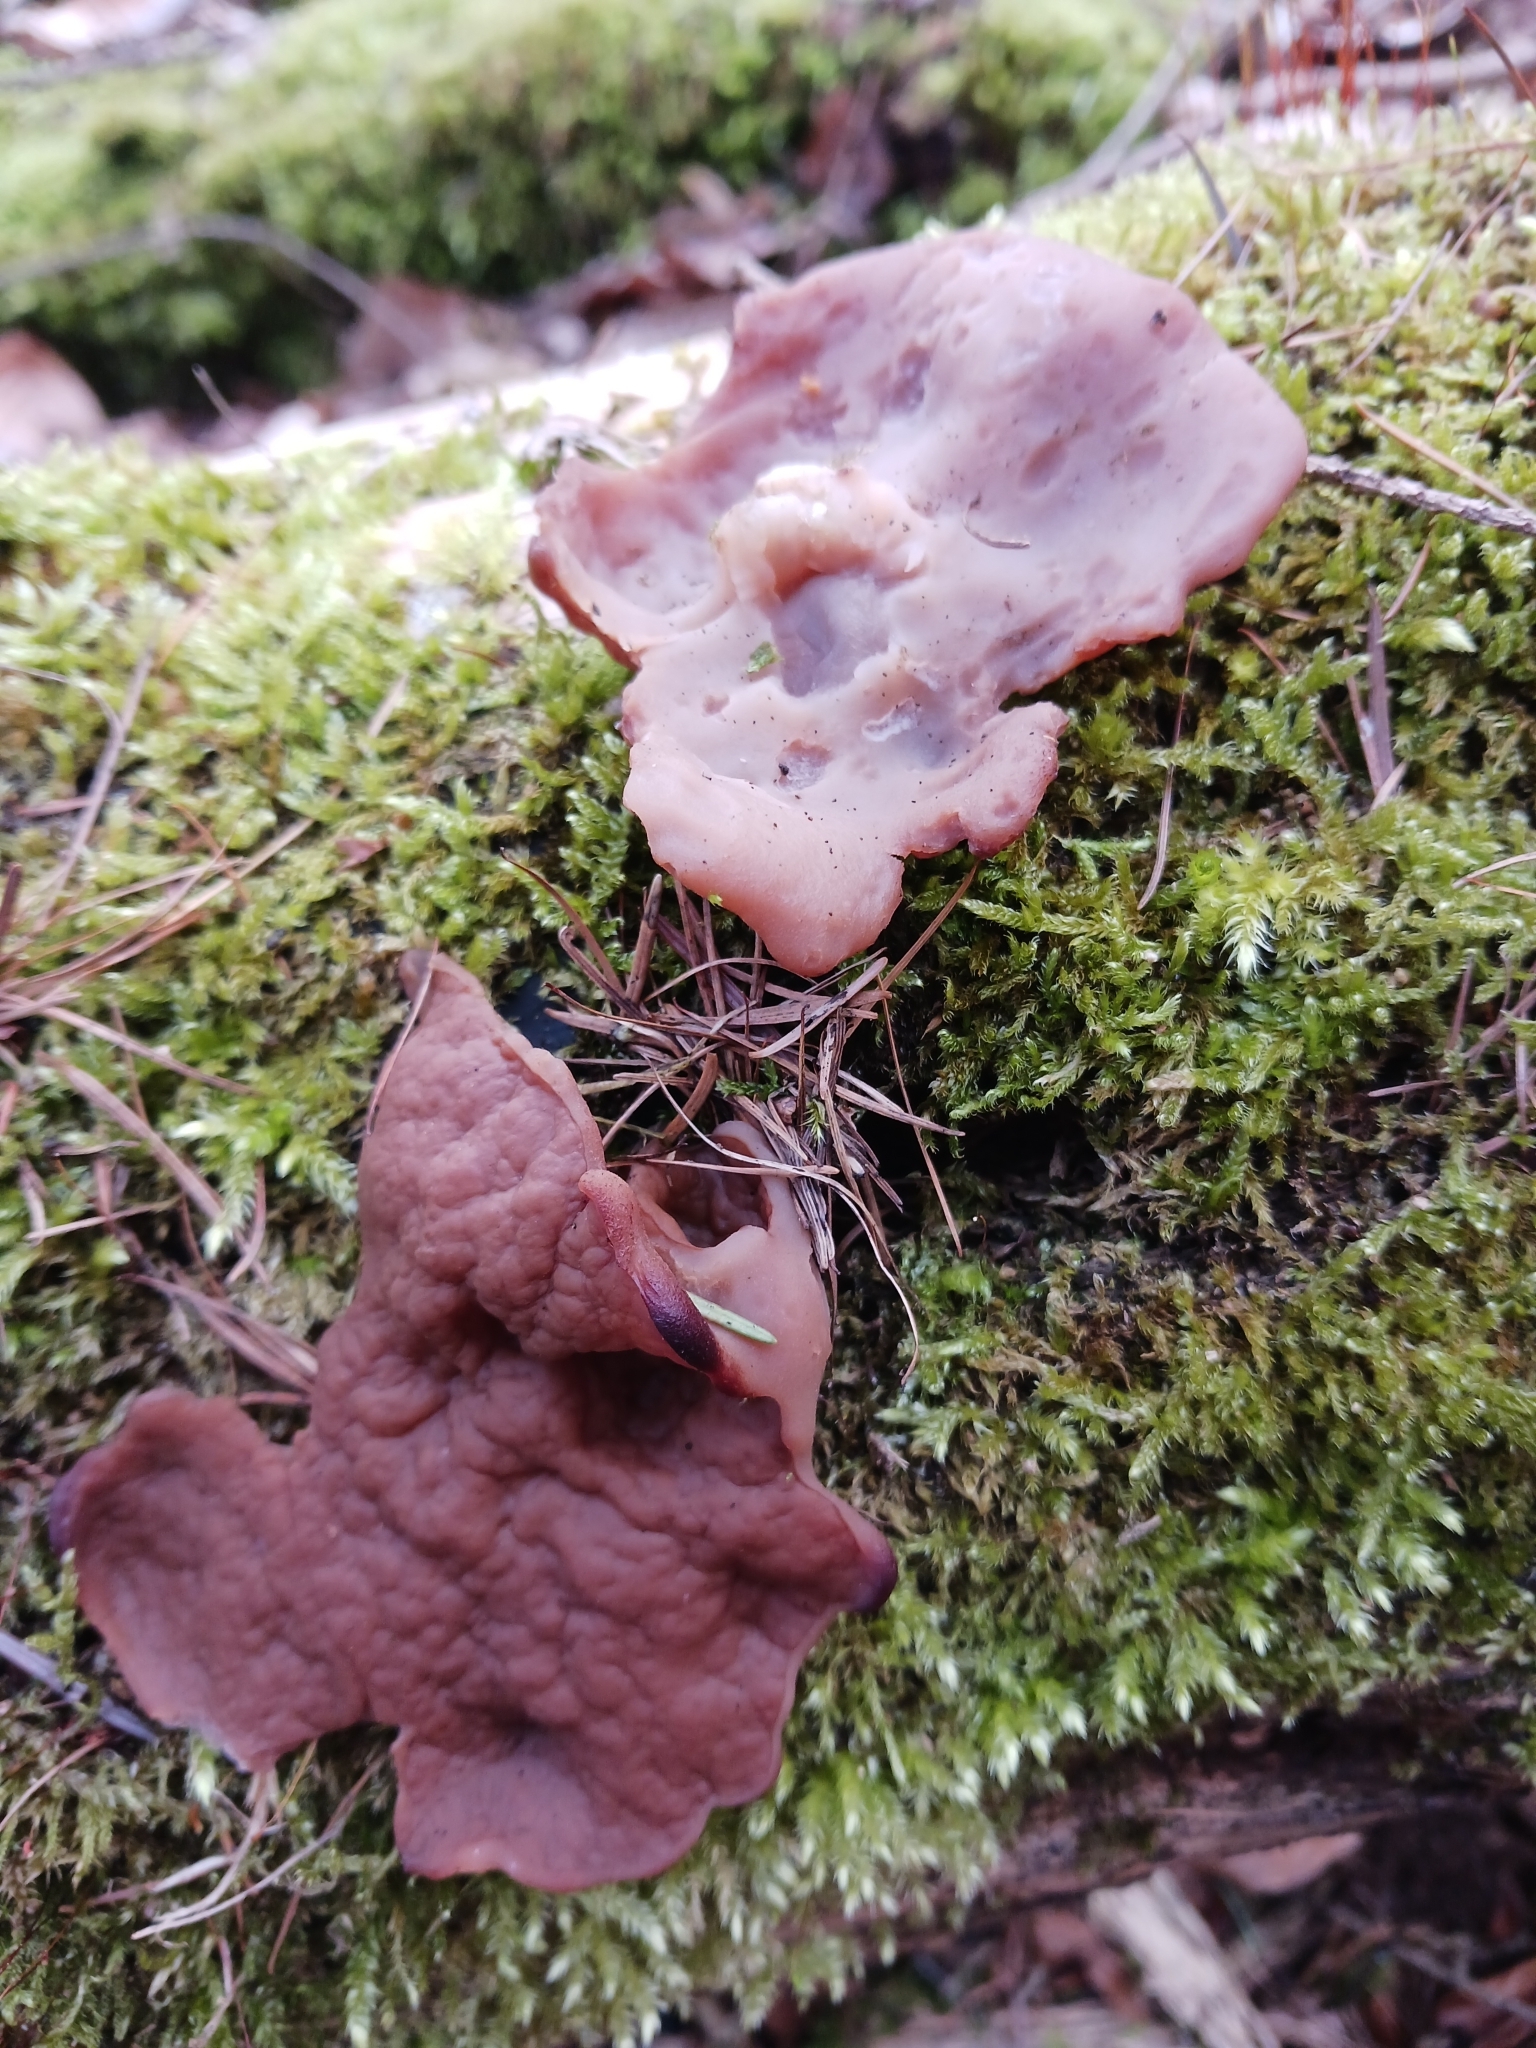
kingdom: Fungi
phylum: Ascomycota
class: Pezizomycetes
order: Pezizales
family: Discinaceae
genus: Discina
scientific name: Discina ancilis
